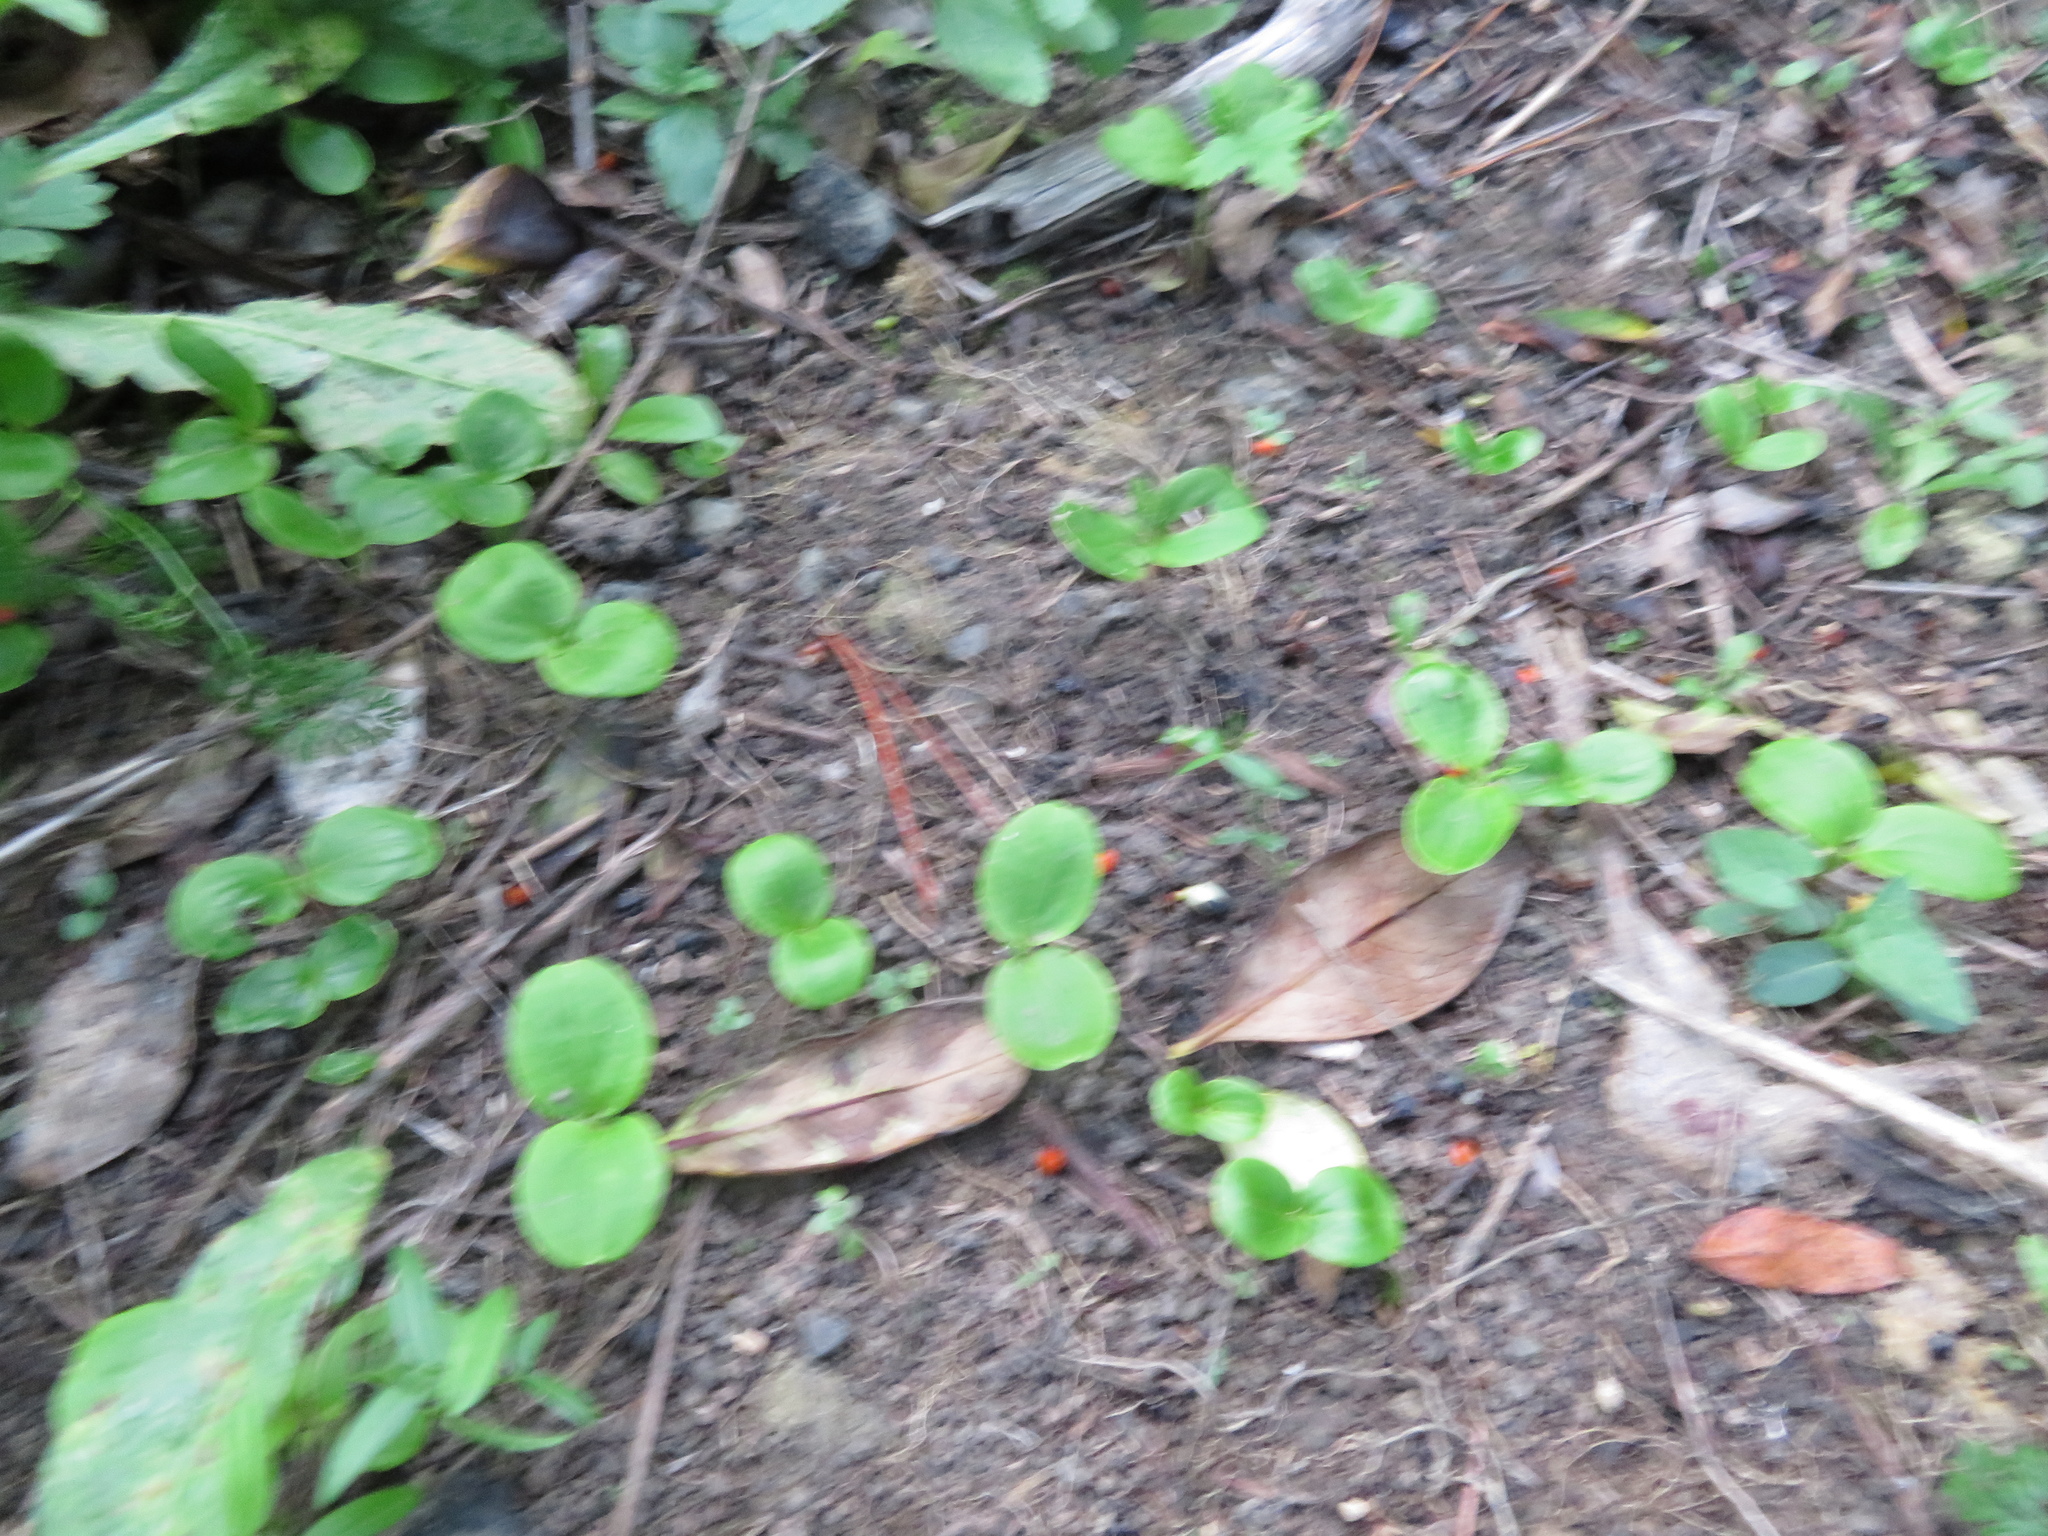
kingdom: Plantae
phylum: Tracheophyta
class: Magnoliopsida
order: Geraniales
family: Melianthaceae
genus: Melianthus
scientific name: Melianthus major
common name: Honey-flower
